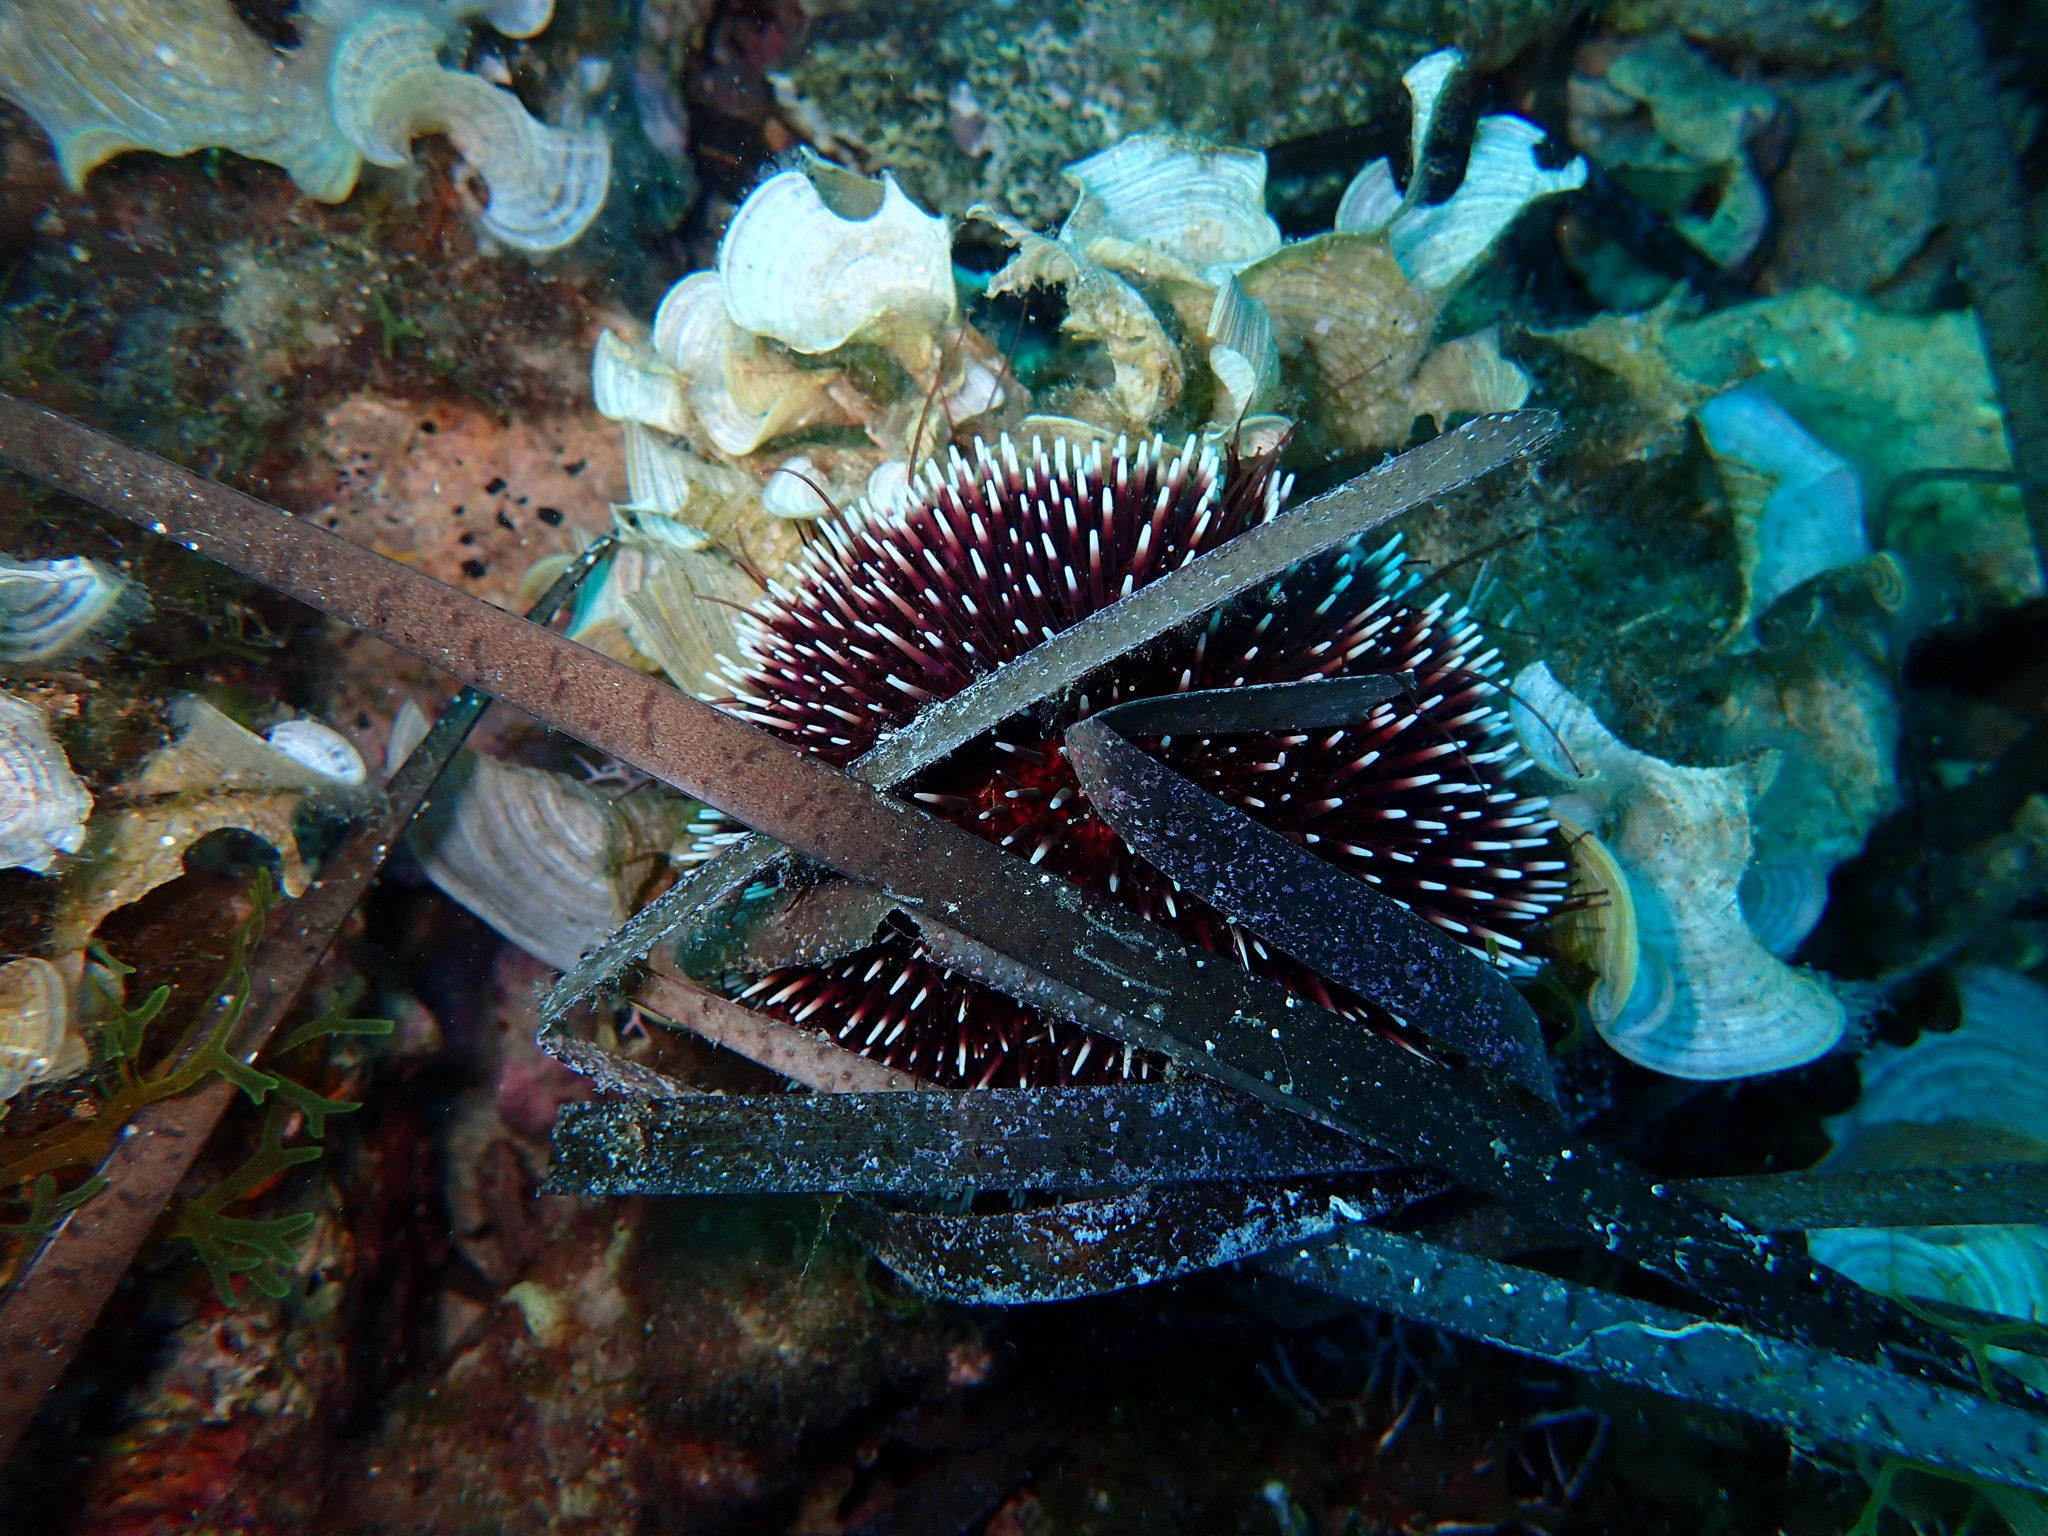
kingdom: Animalia
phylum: Echinodermata
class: Echinoidea
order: Camarodonta
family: Toxopneustidae
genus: Sphaerechinus
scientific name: Sphaerechinus granularis
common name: Violet sea urchin
